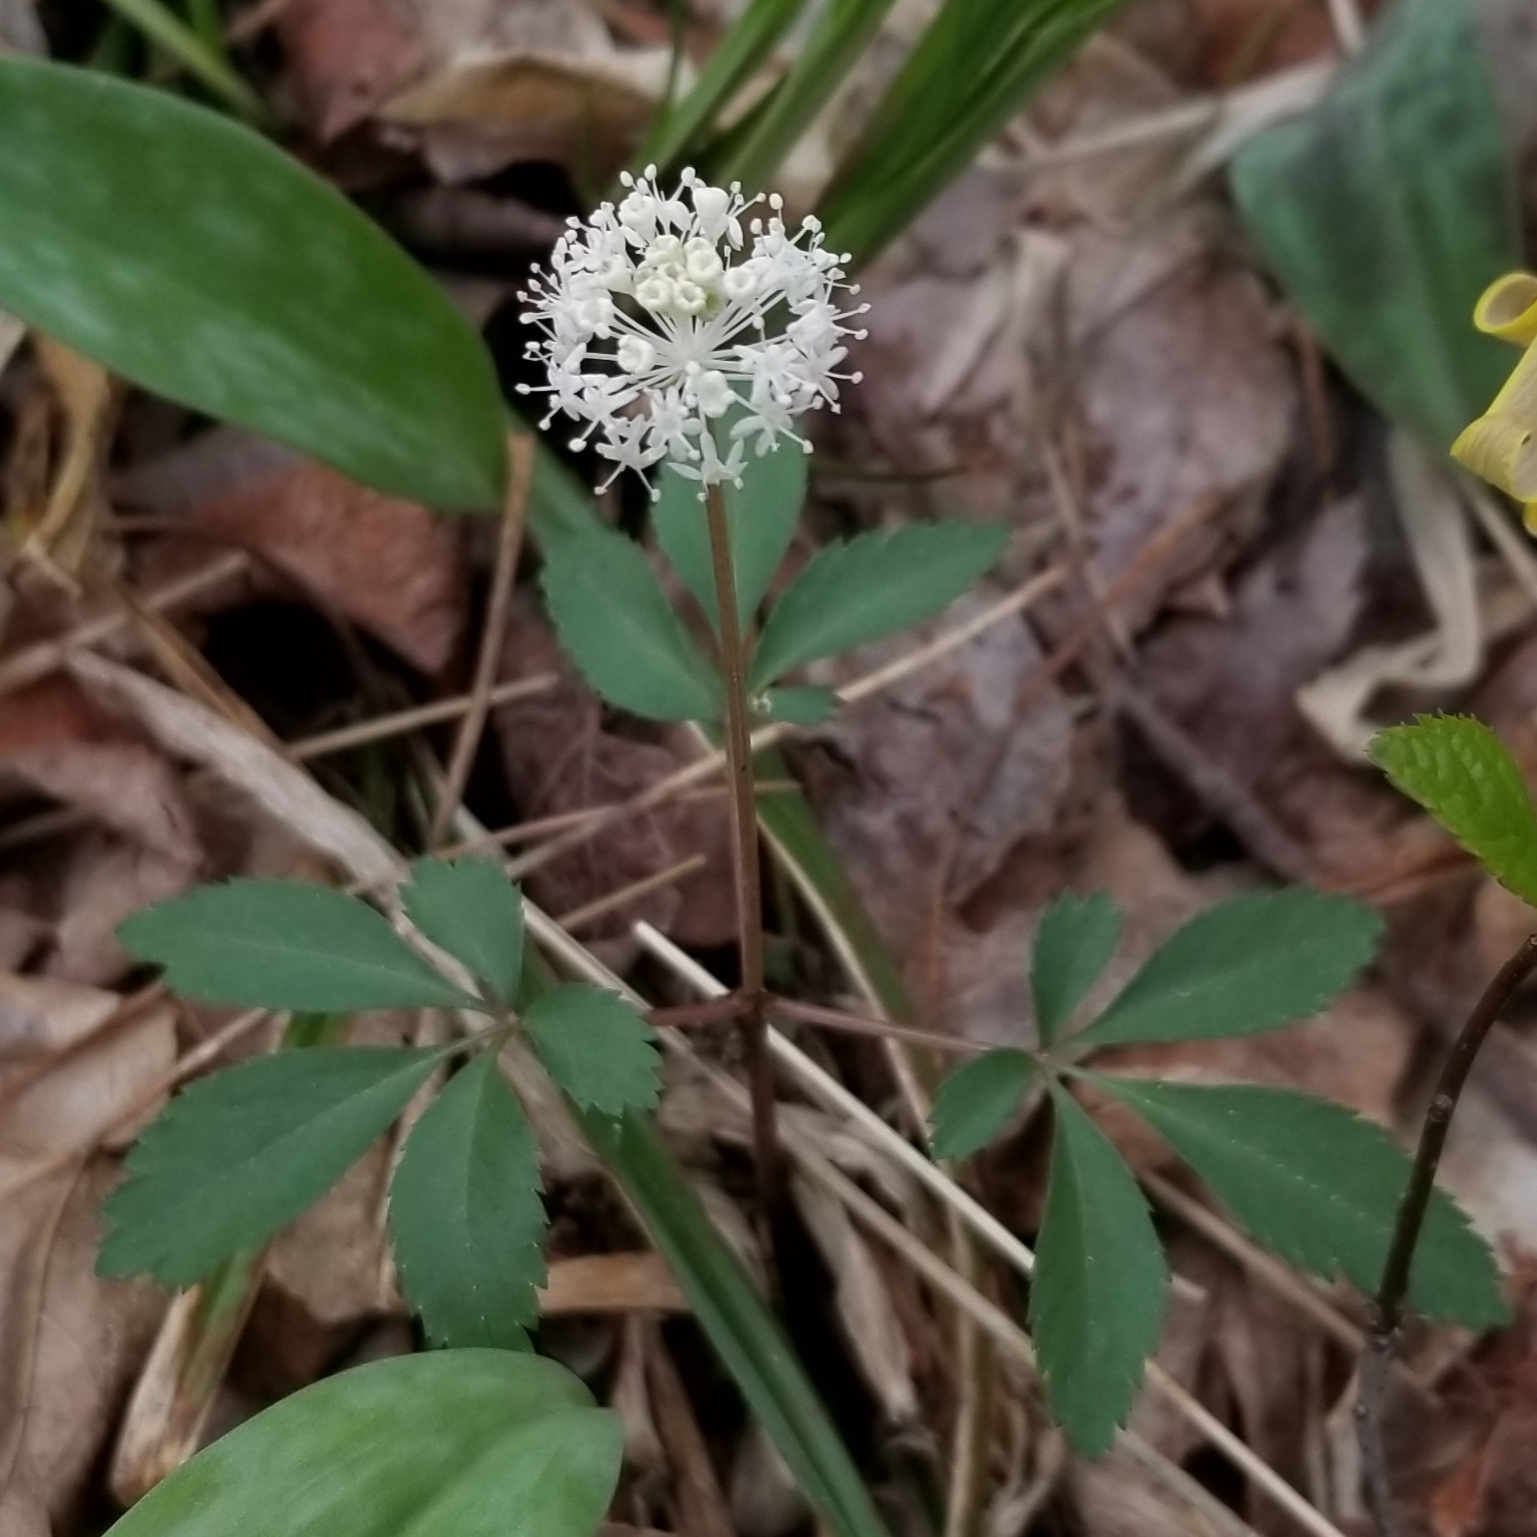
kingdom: Plantae
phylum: Tracheophyta
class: Magnoliopsida
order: Apiales
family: Araliaceae
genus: Panax
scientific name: Panax trifolius
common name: Dwarf ginseng
